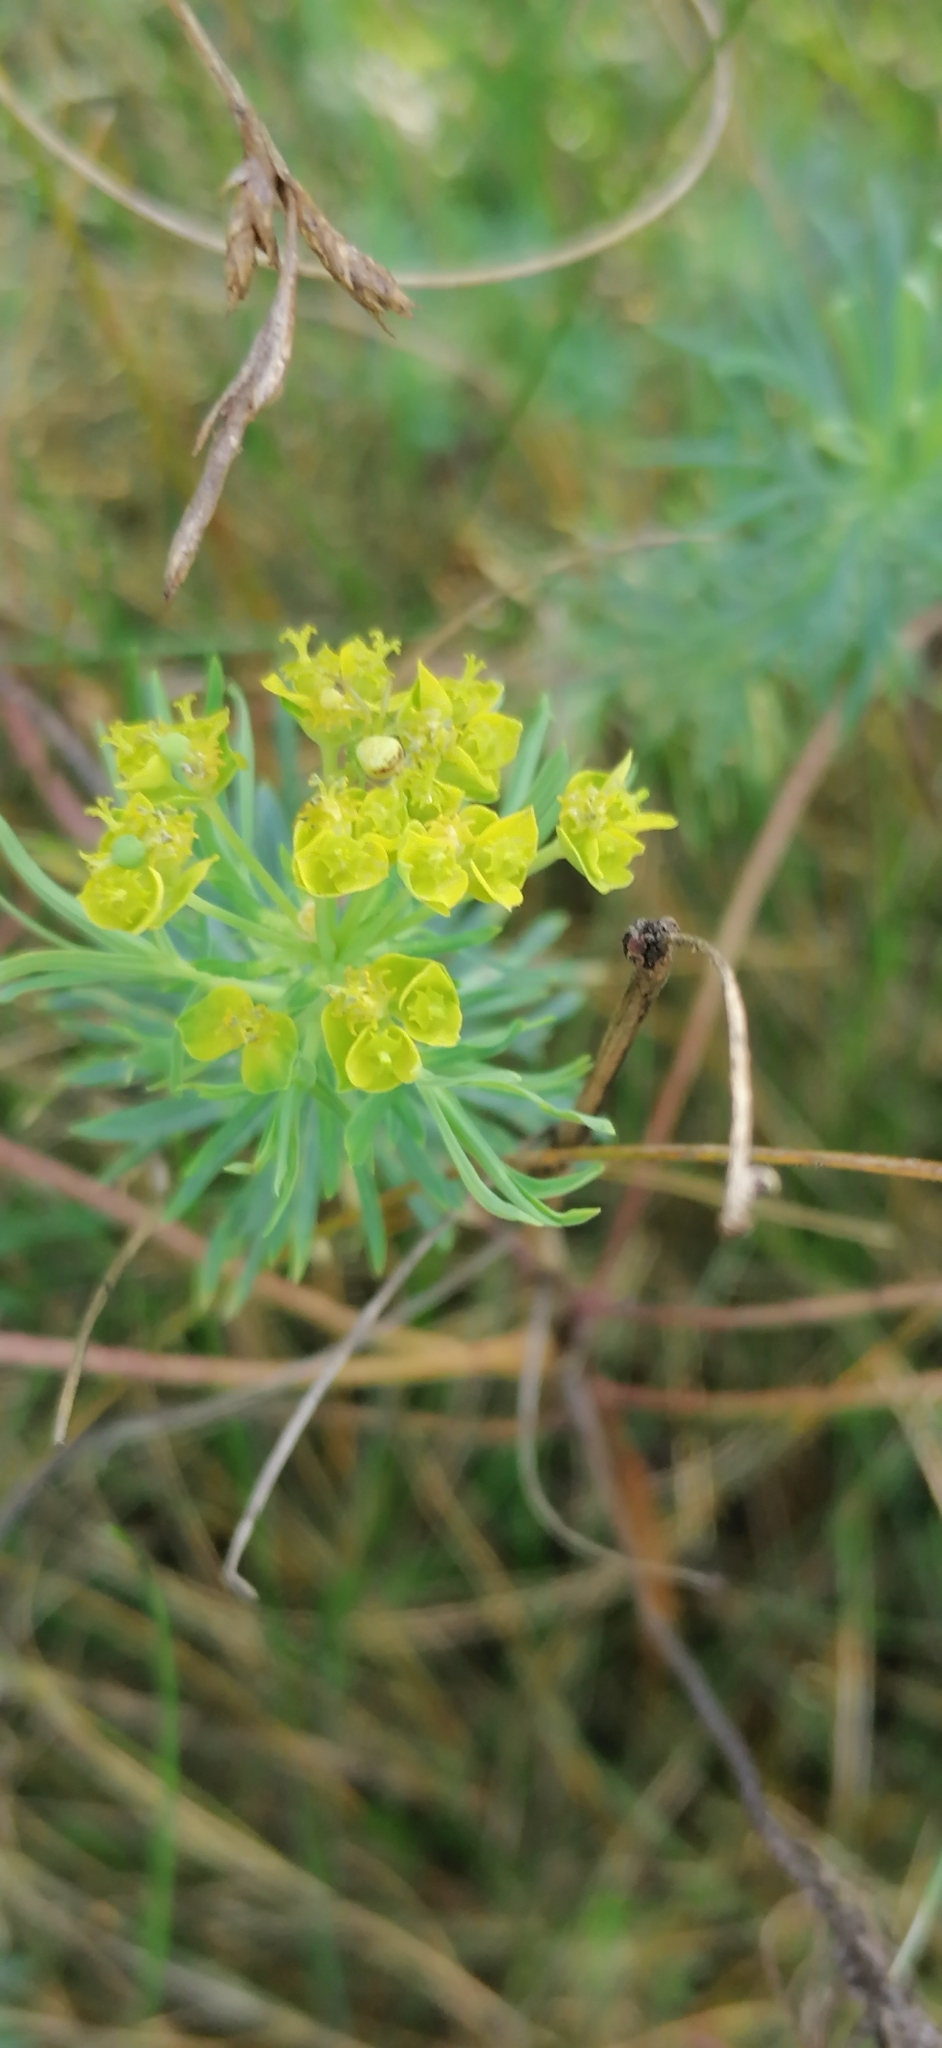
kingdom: Plantae
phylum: Tracheophyta
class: Magnoliopsida
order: Malpighiales
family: Euphorbiaceae
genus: Euphorbia
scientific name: Euphorbia cyparissias
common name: Cypress spurge
